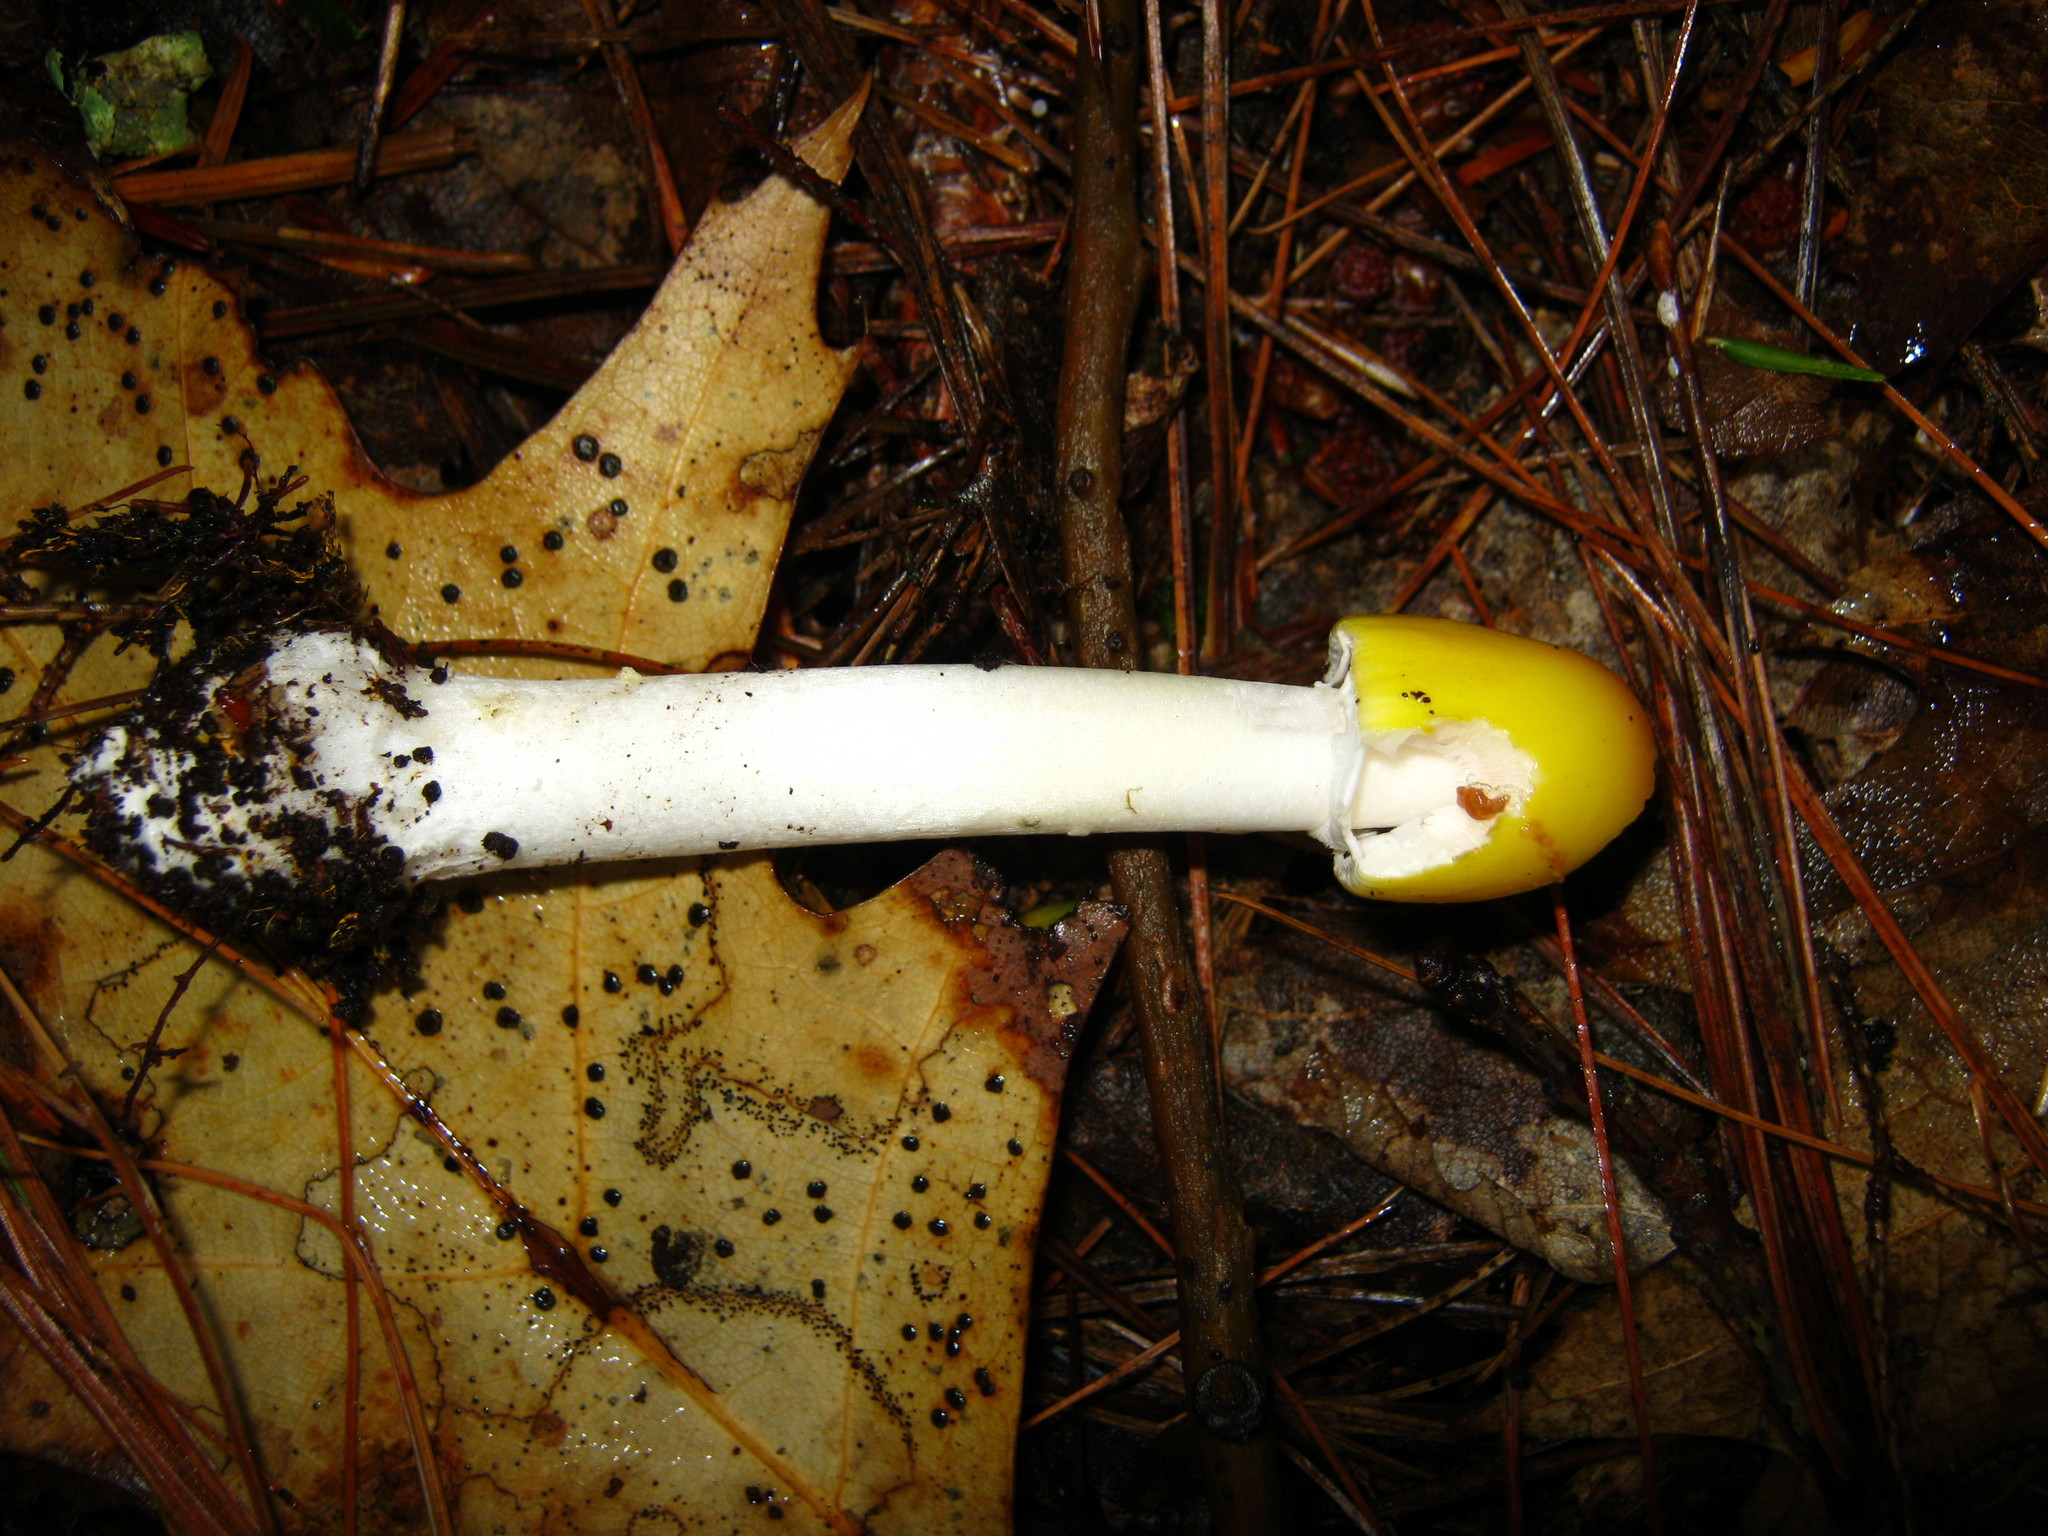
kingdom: Fungi
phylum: Basidiomycota
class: Agaricomycetes
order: Agaricales
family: Amanitaceae
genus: Amanita
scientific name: Amanita elongata
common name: Peck's yellow dust amanita
